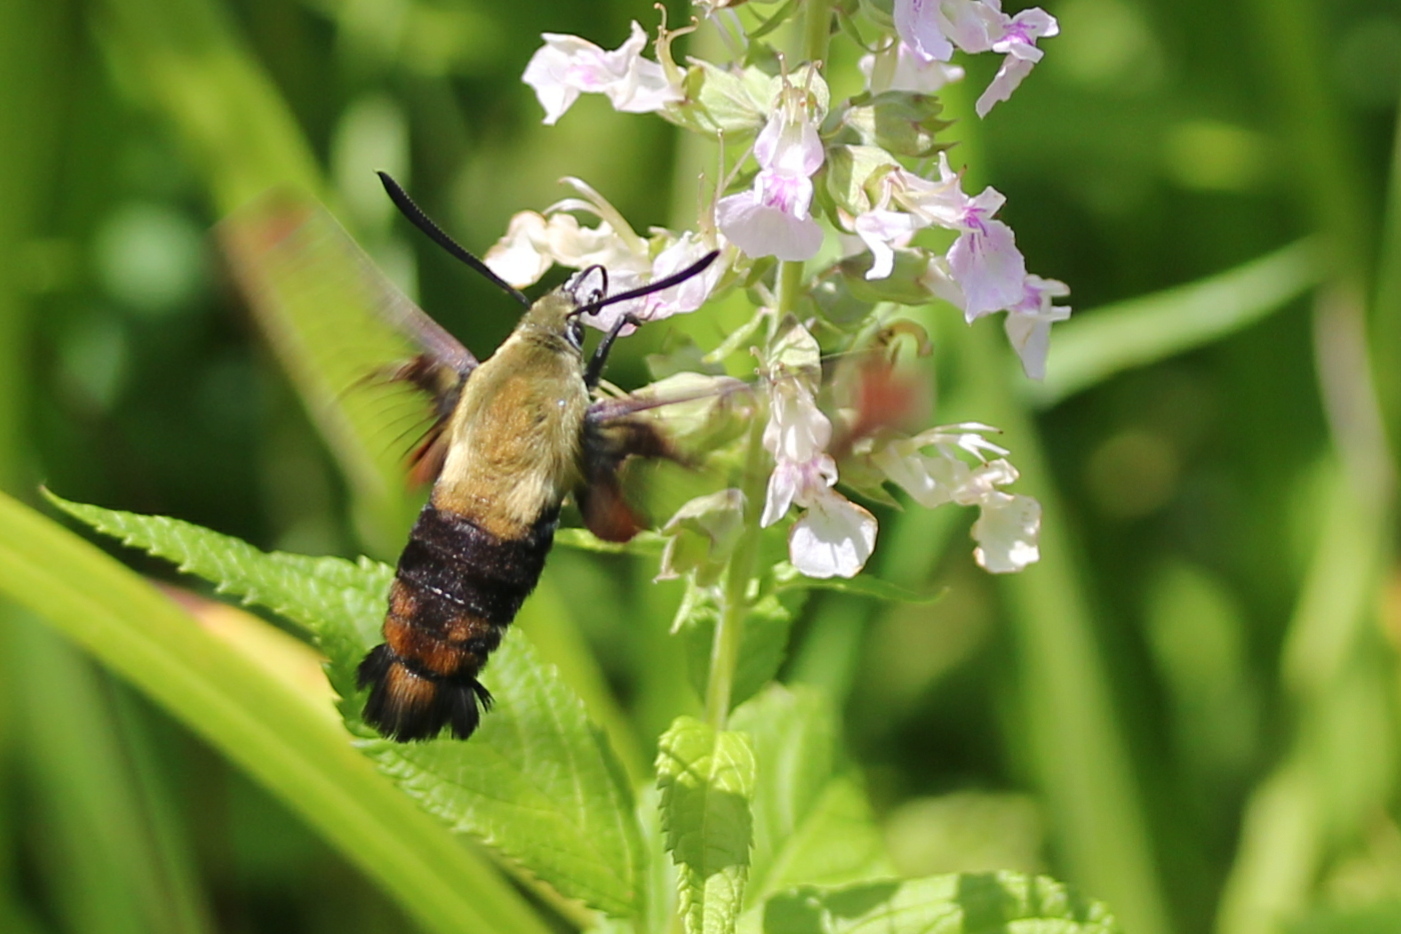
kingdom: Animalia
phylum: Arthropoda
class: Insecta
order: Lepidoptera
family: Sphingidae
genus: Hemaris
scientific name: Hemaris diffinis
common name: Bumblebee moth
